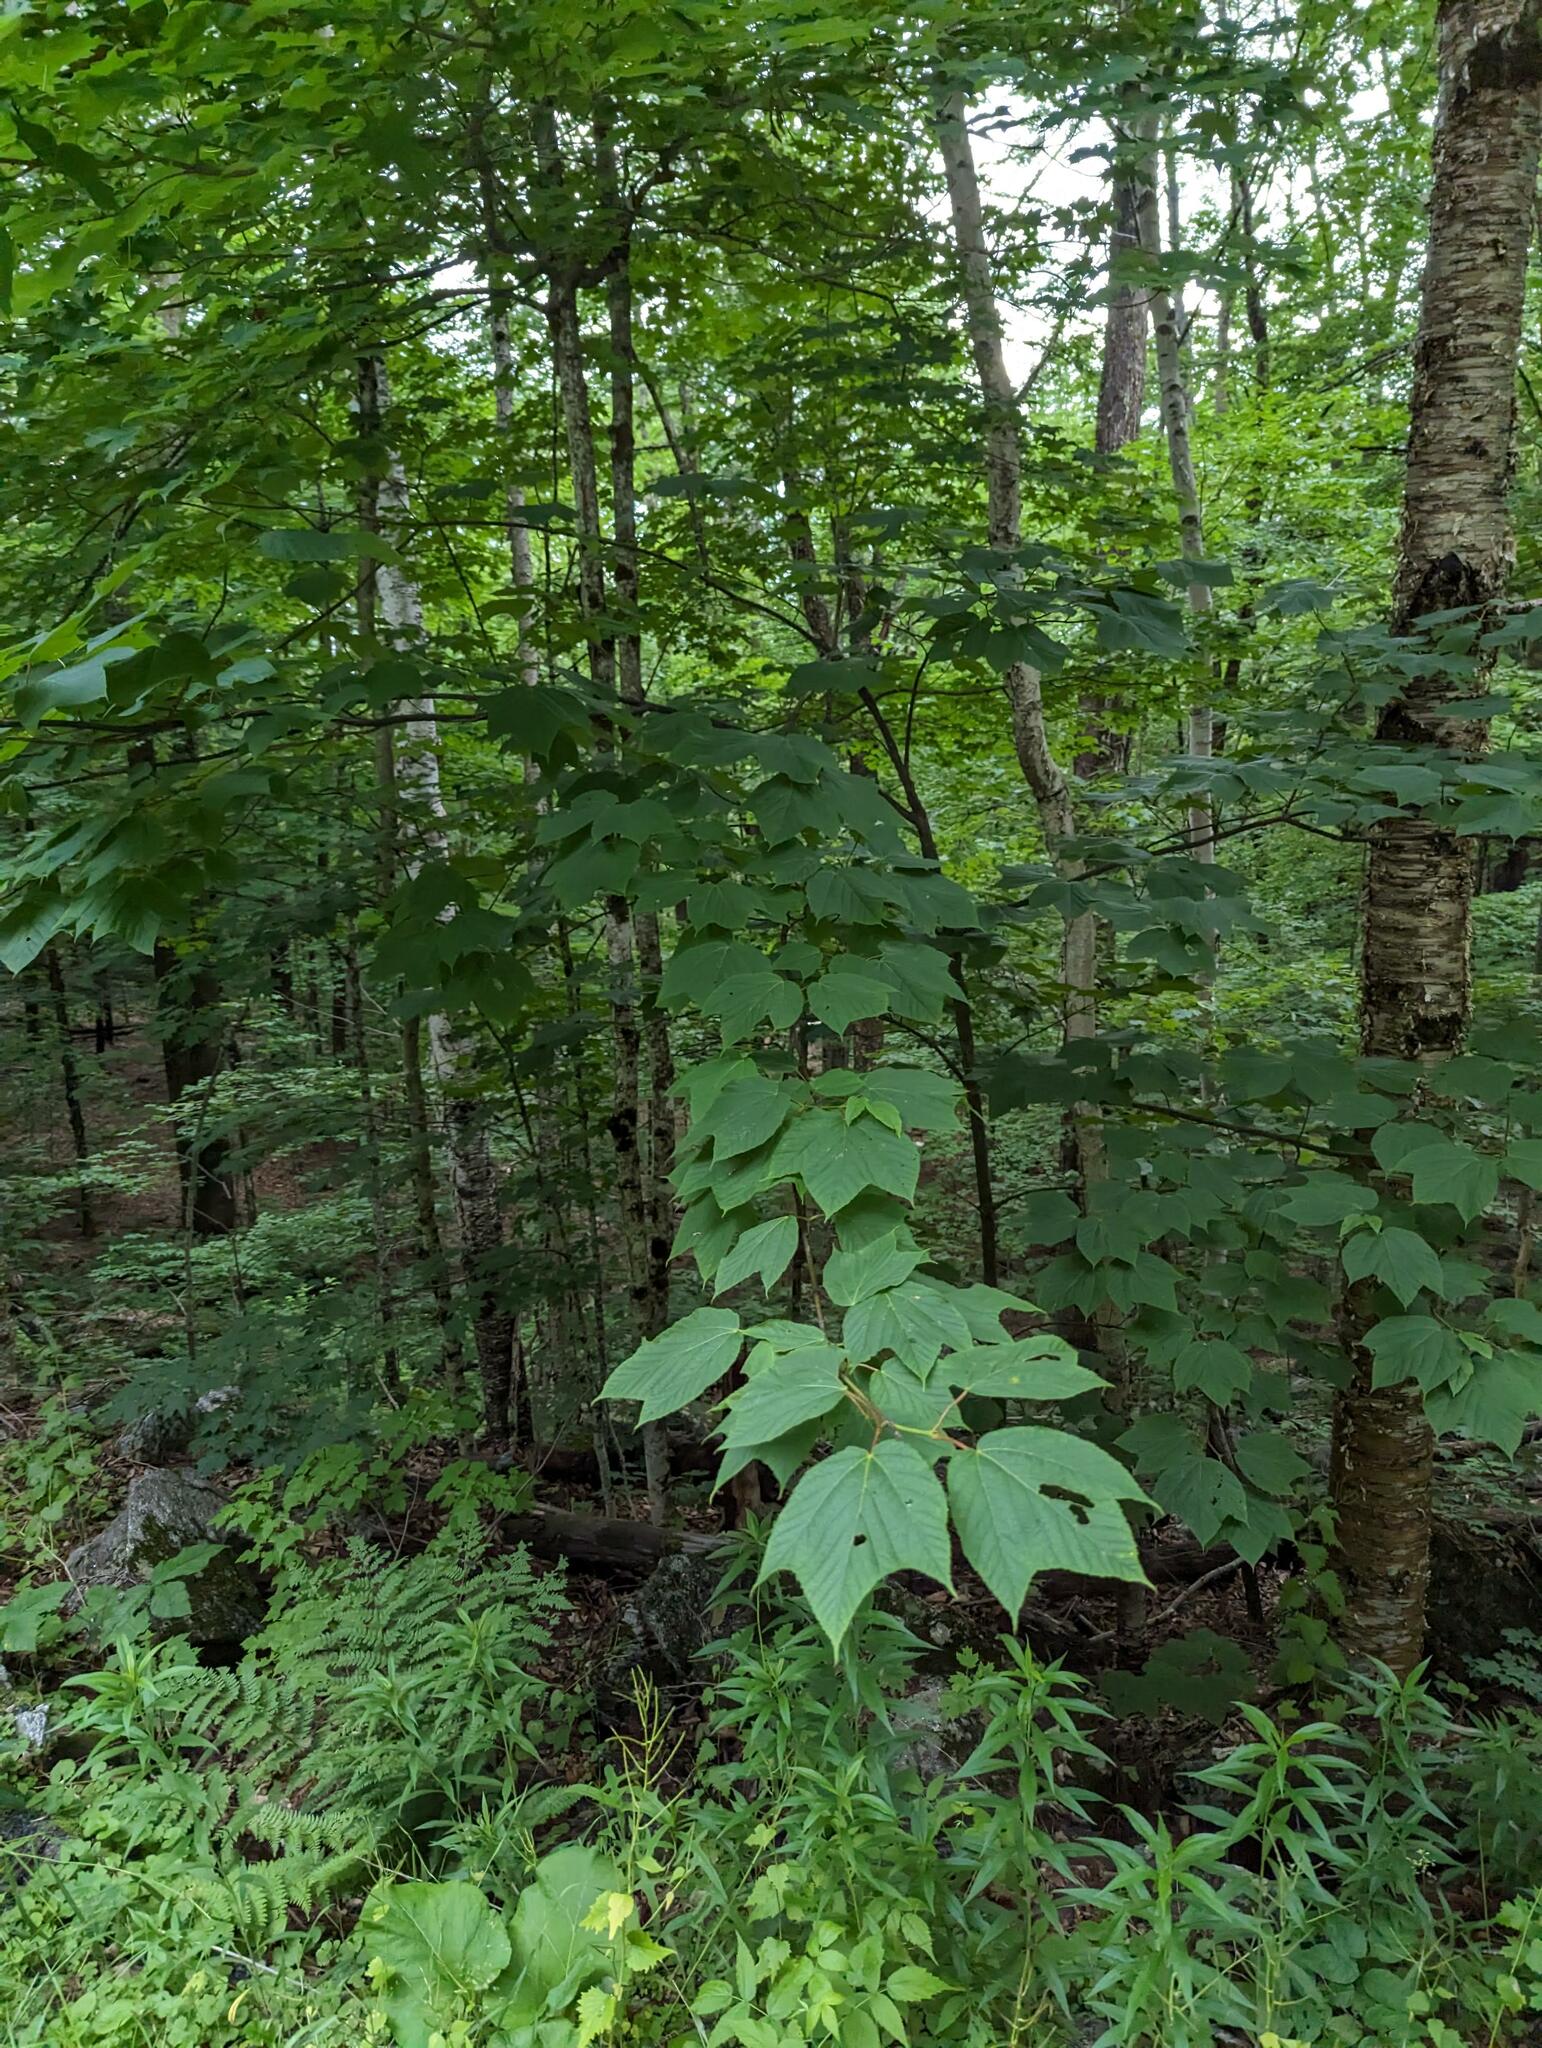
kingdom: Plantae
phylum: Tracheophyta
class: Magnoliopsida
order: Sapindales
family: Sapindaceae
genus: Acer
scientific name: Acer pensylvanicum
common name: Moosewood
